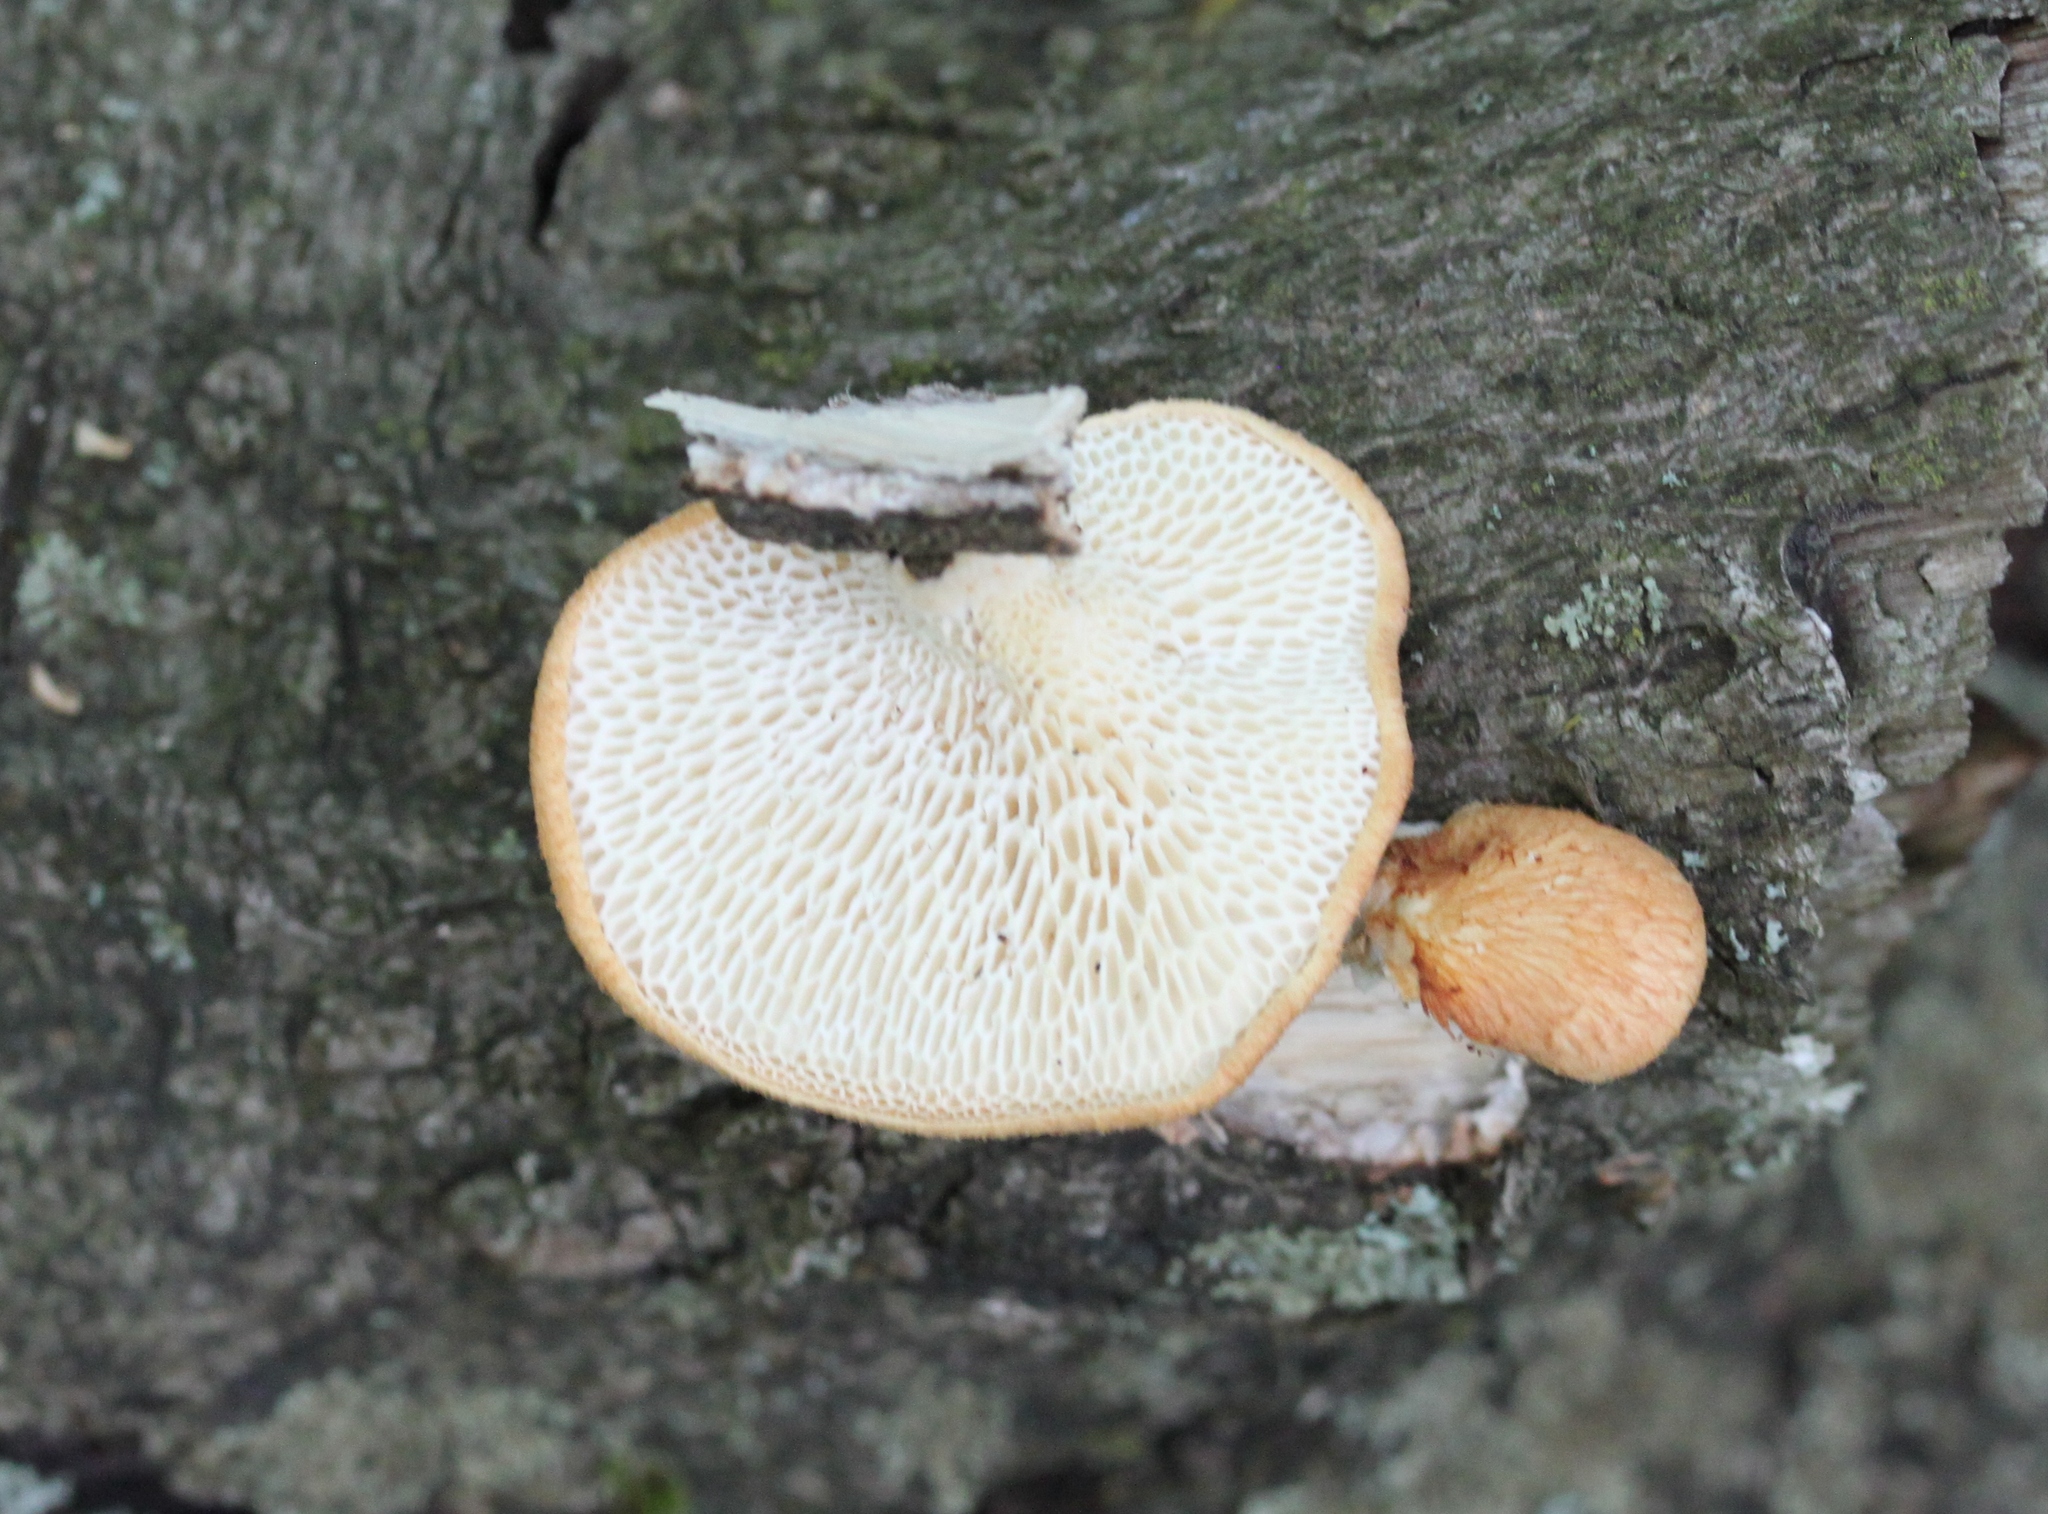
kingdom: Fungi
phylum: Basidiomycota
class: Agaricomycetes
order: Polyporales
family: Polyporaceae
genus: Neofavolus
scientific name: Neofavolus alveolaris
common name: Hexagonal-pored polypore
